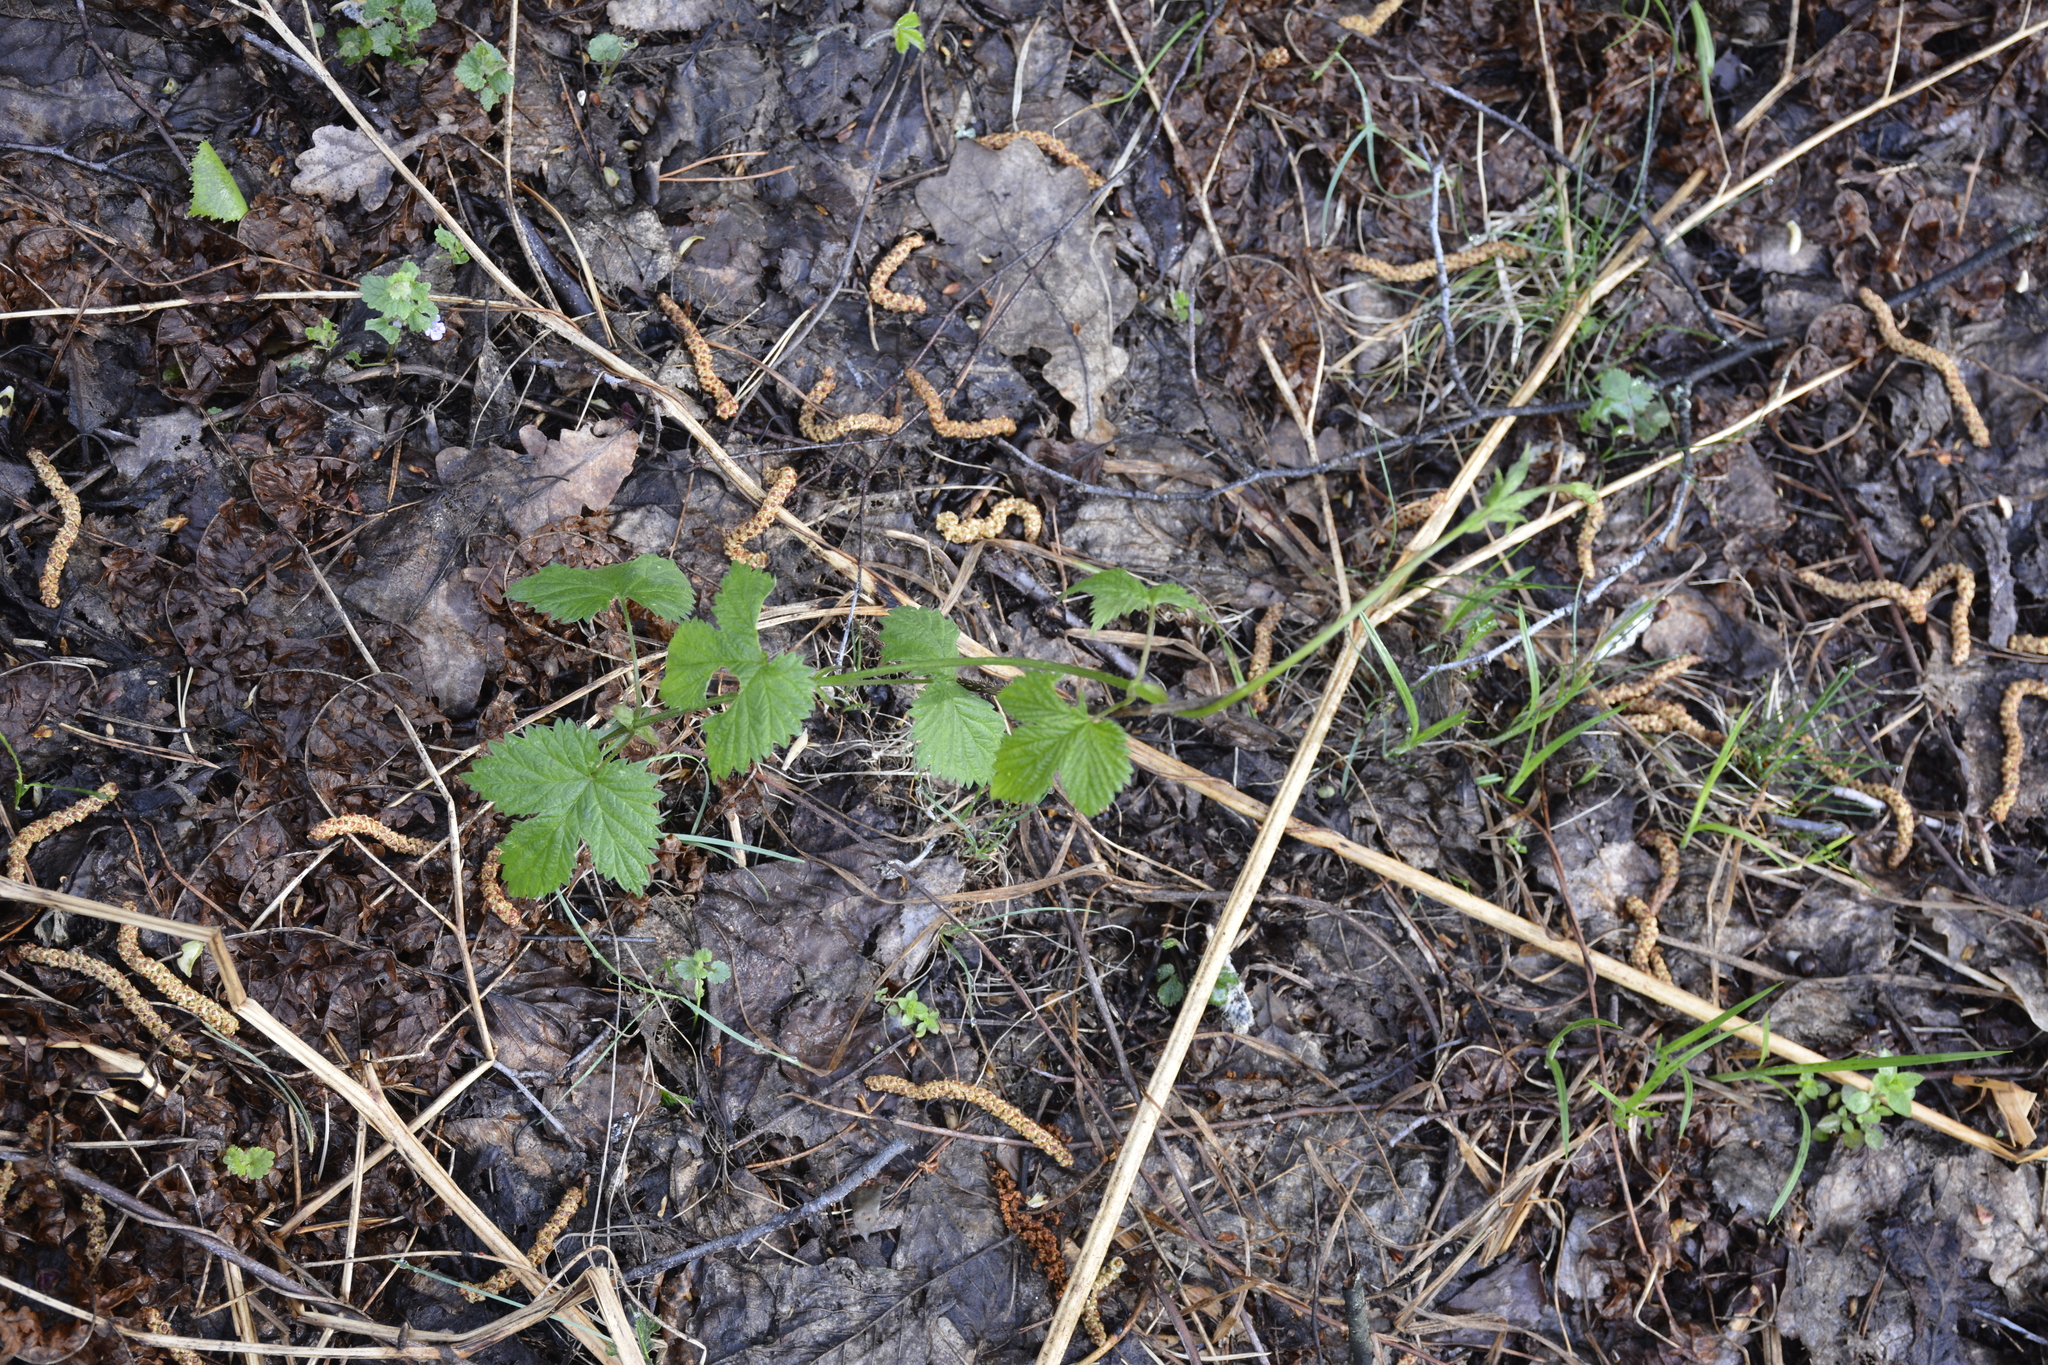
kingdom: Plantae
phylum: Tracheophyta
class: Magnoliopsida
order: Rosales
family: Cannabaceae
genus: Humulus
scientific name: Humulus lupulus
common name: Hop
